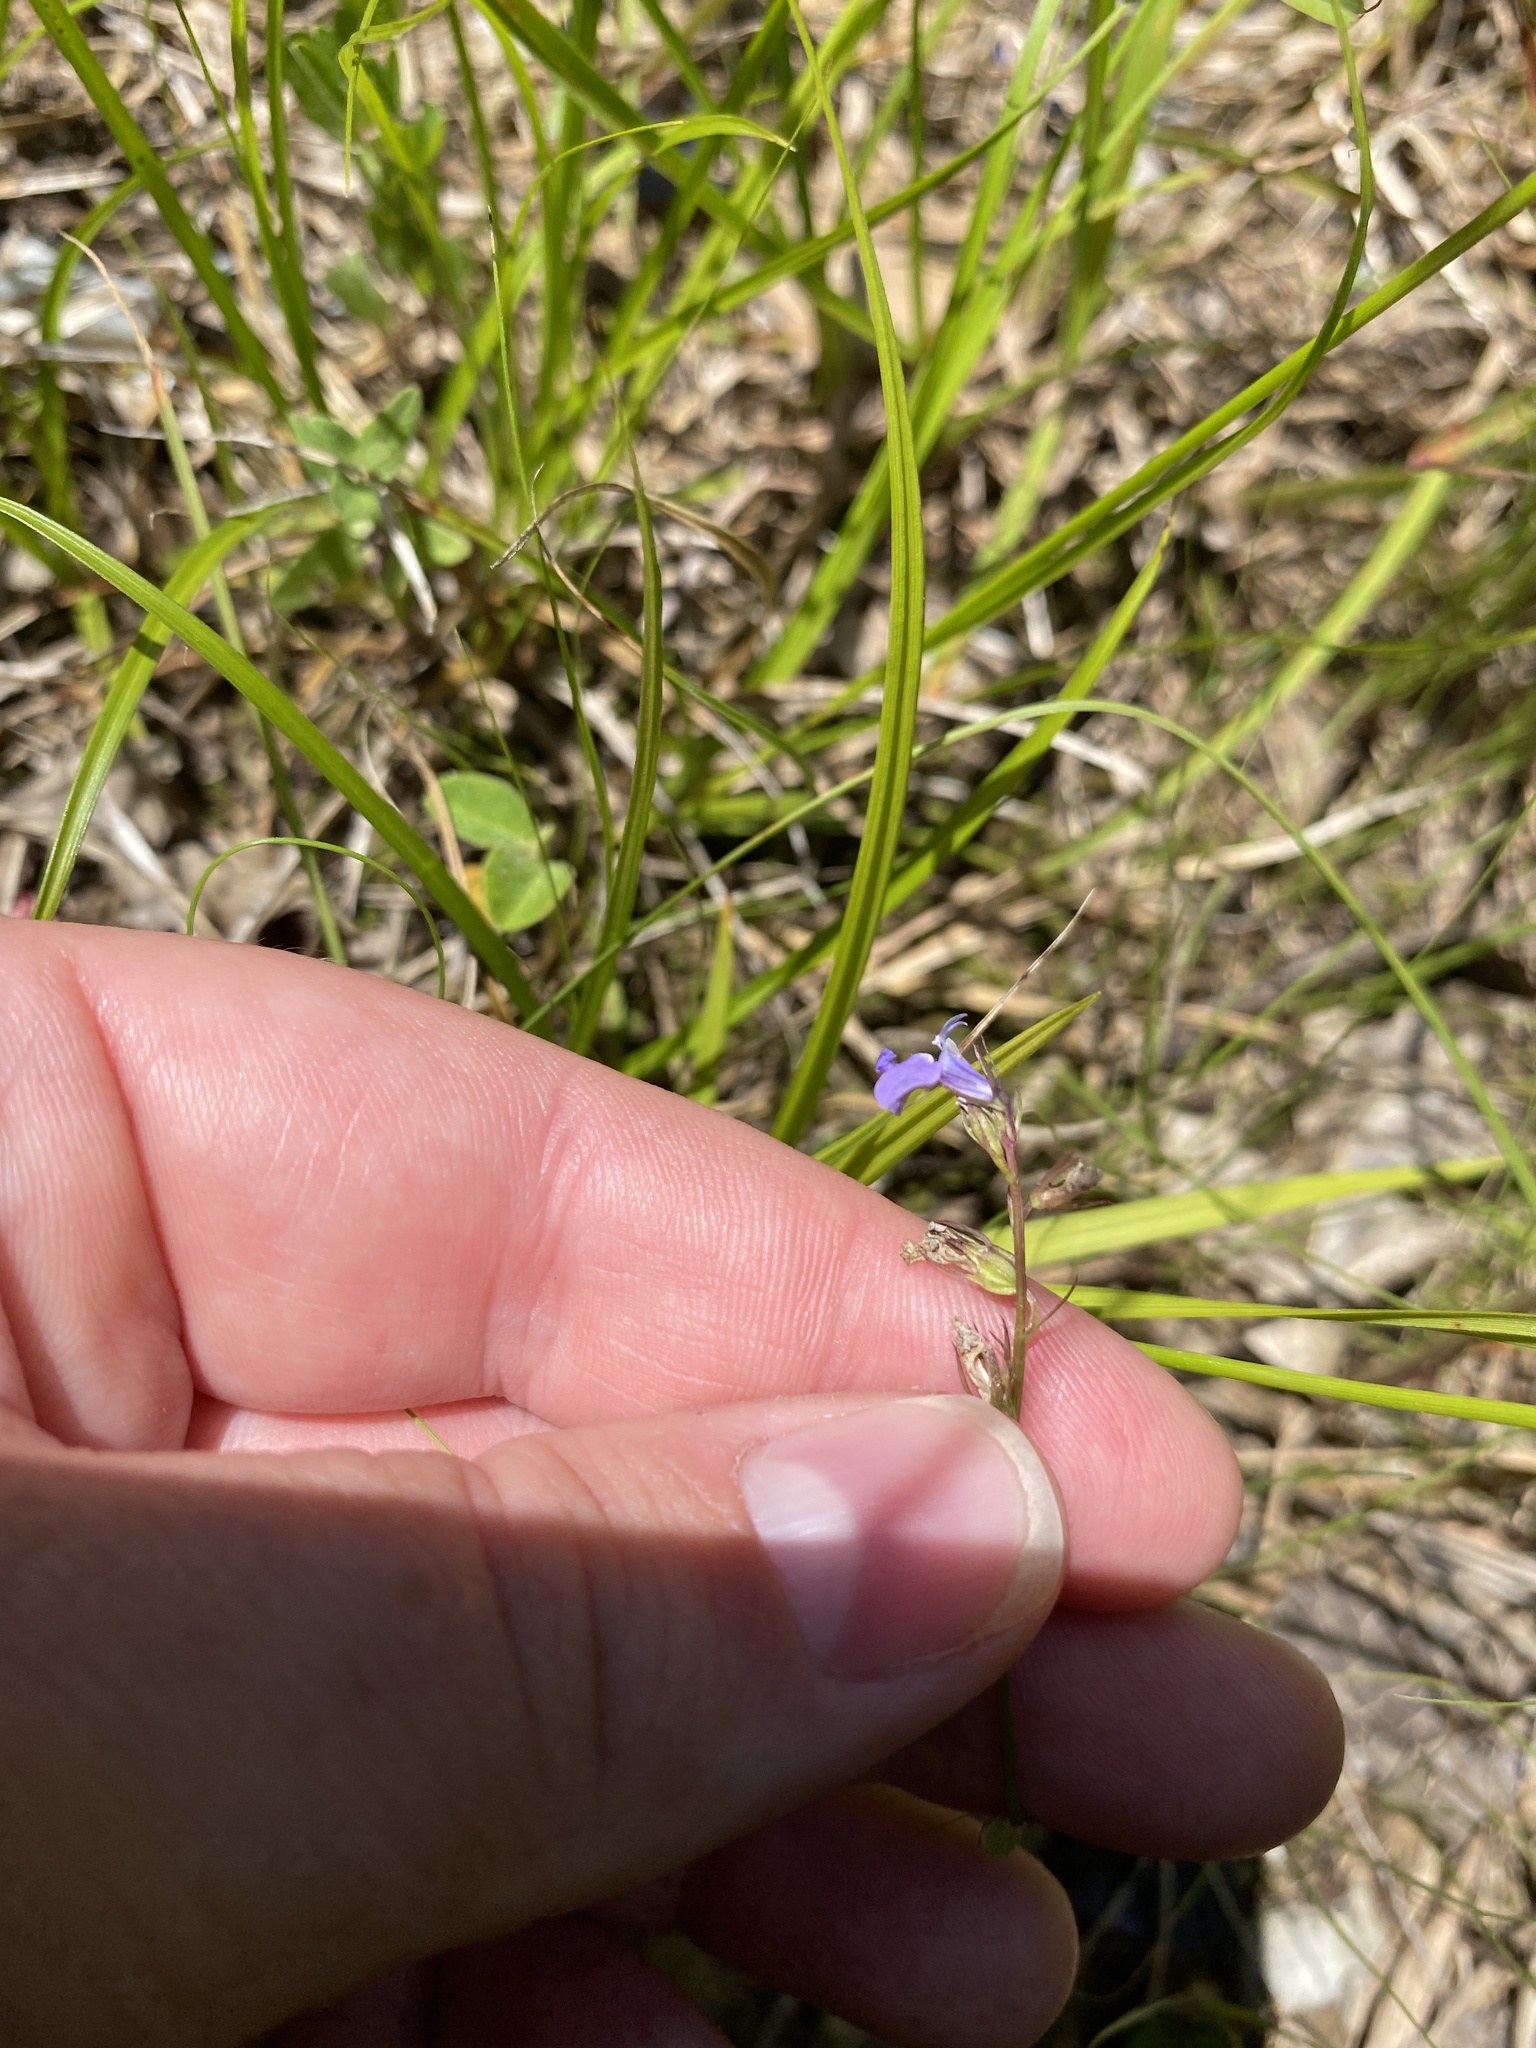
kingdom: Plantae
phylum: Tracheophyta
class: Magnoliopsida
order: Asterales
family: Campanulaceae
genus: Lobelia
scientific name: Lobelia gattingeri
